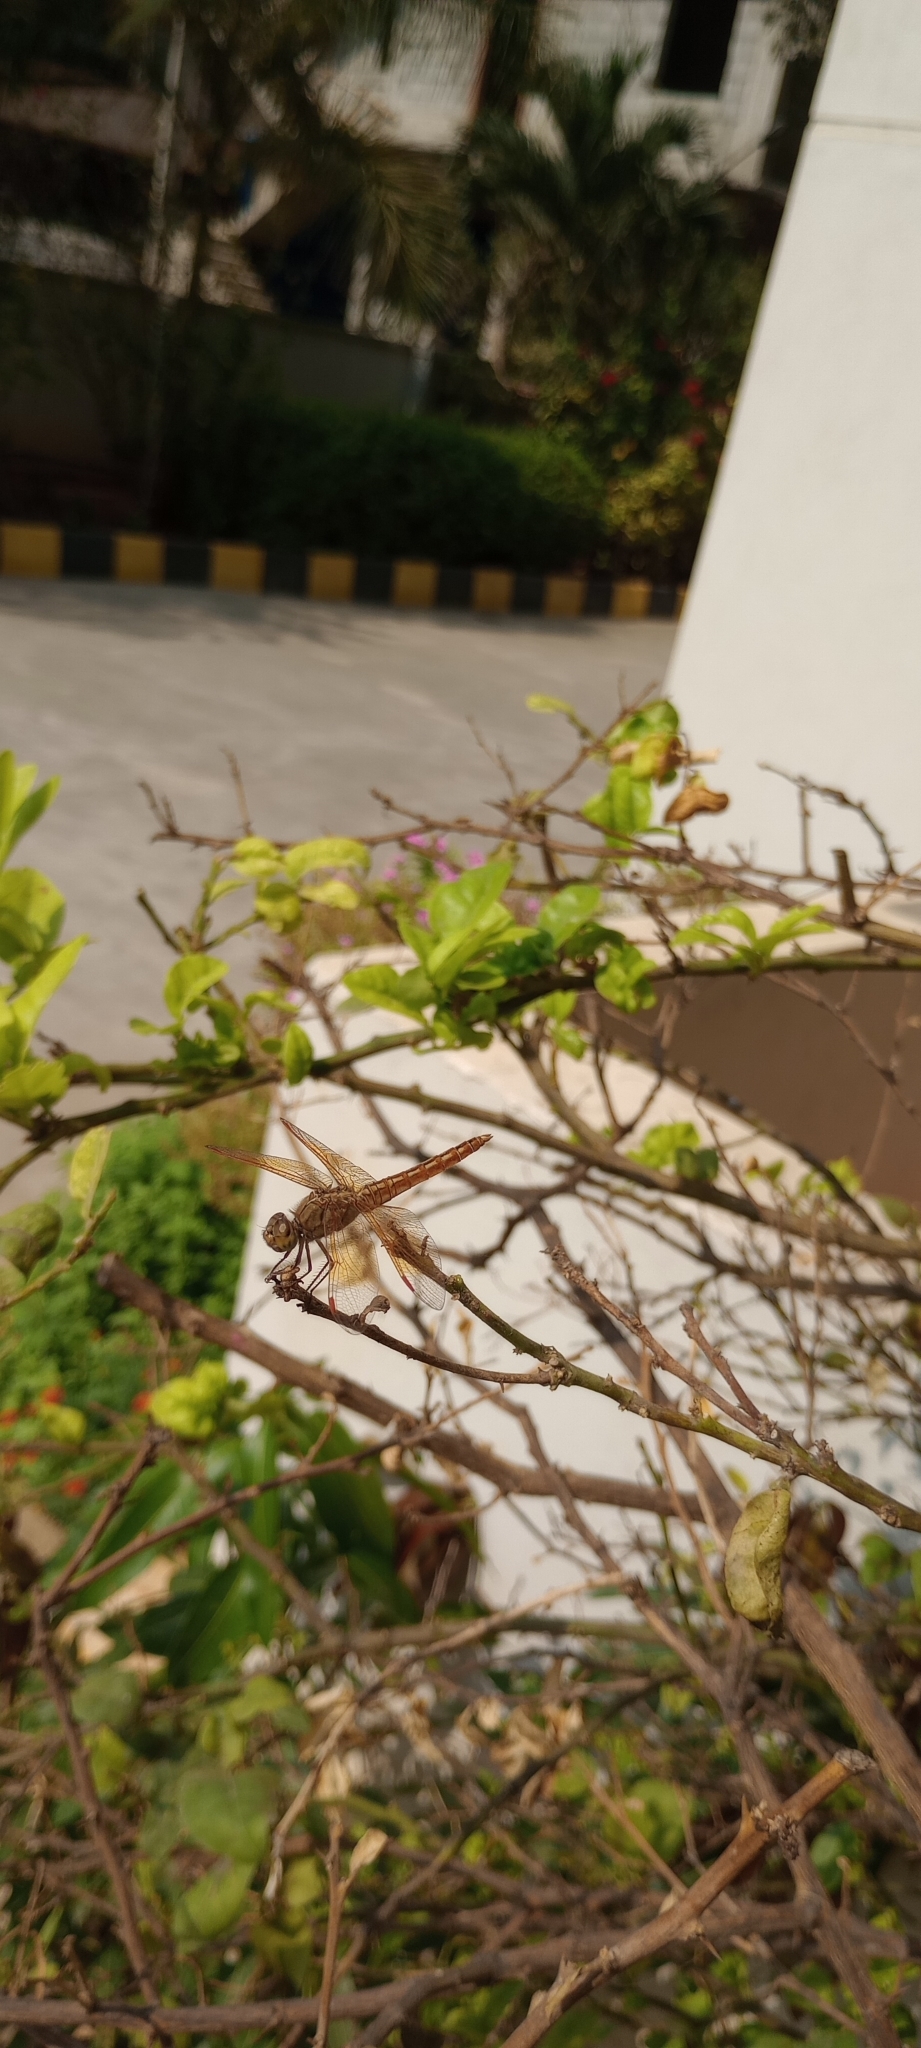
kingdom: Animalia
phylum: Arthropoda
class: Insecta
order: Odonata
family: Libellulidae
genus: Brachythemis
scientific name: Brachythemis contaminata
